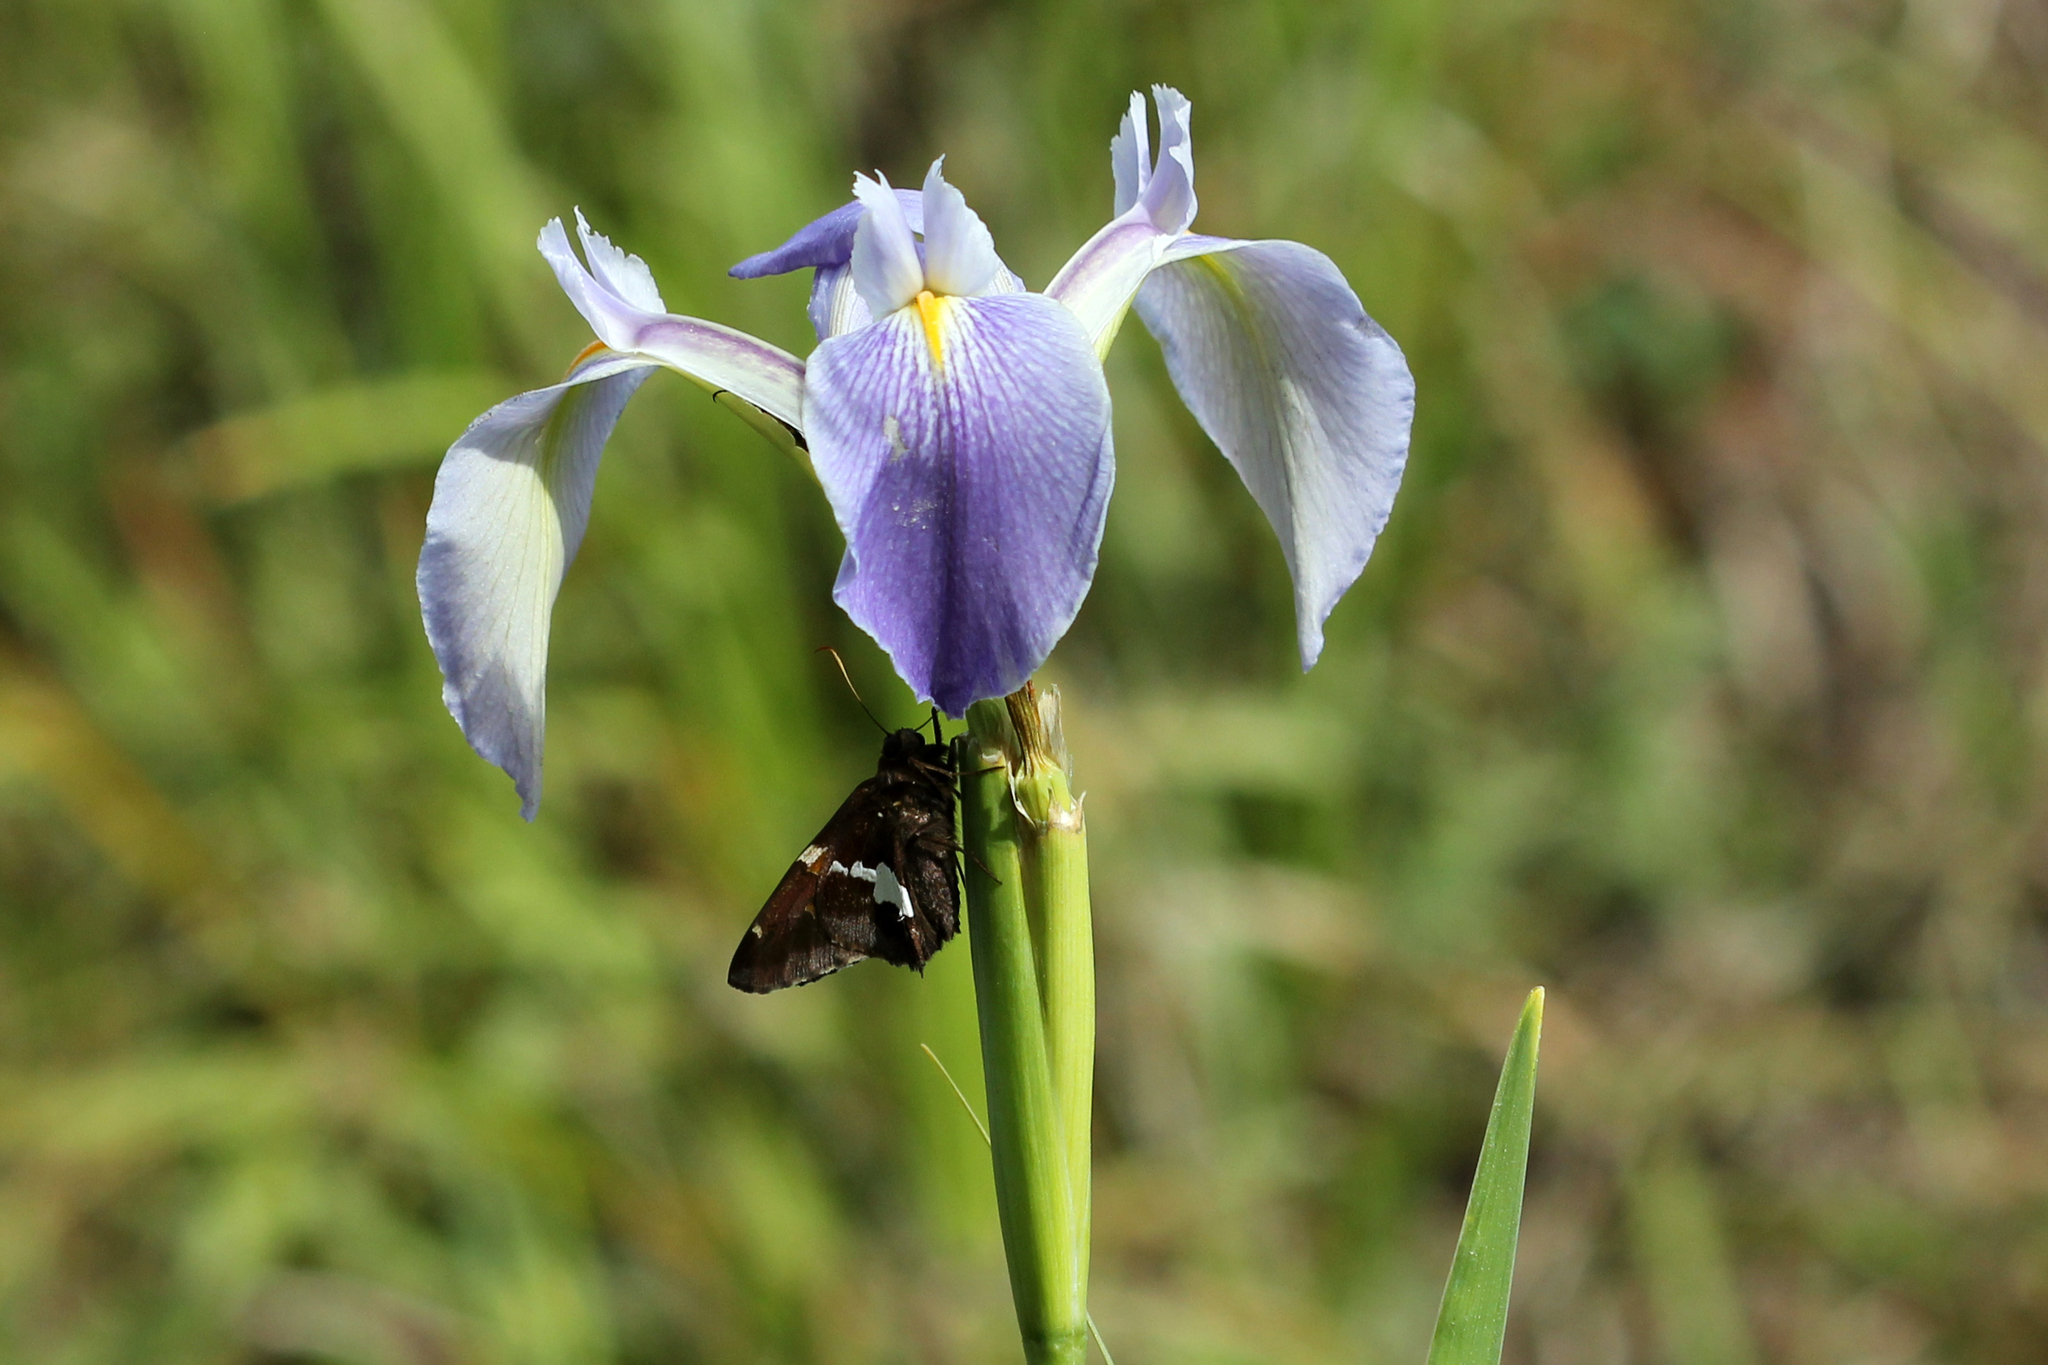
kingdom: Animalia
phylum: Arthropoda
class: Insecta
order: Lepidoptera
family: Hesperiidae
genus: Epargyreus
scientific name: Epargyreus clarus
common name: Silver-spotted skipper
